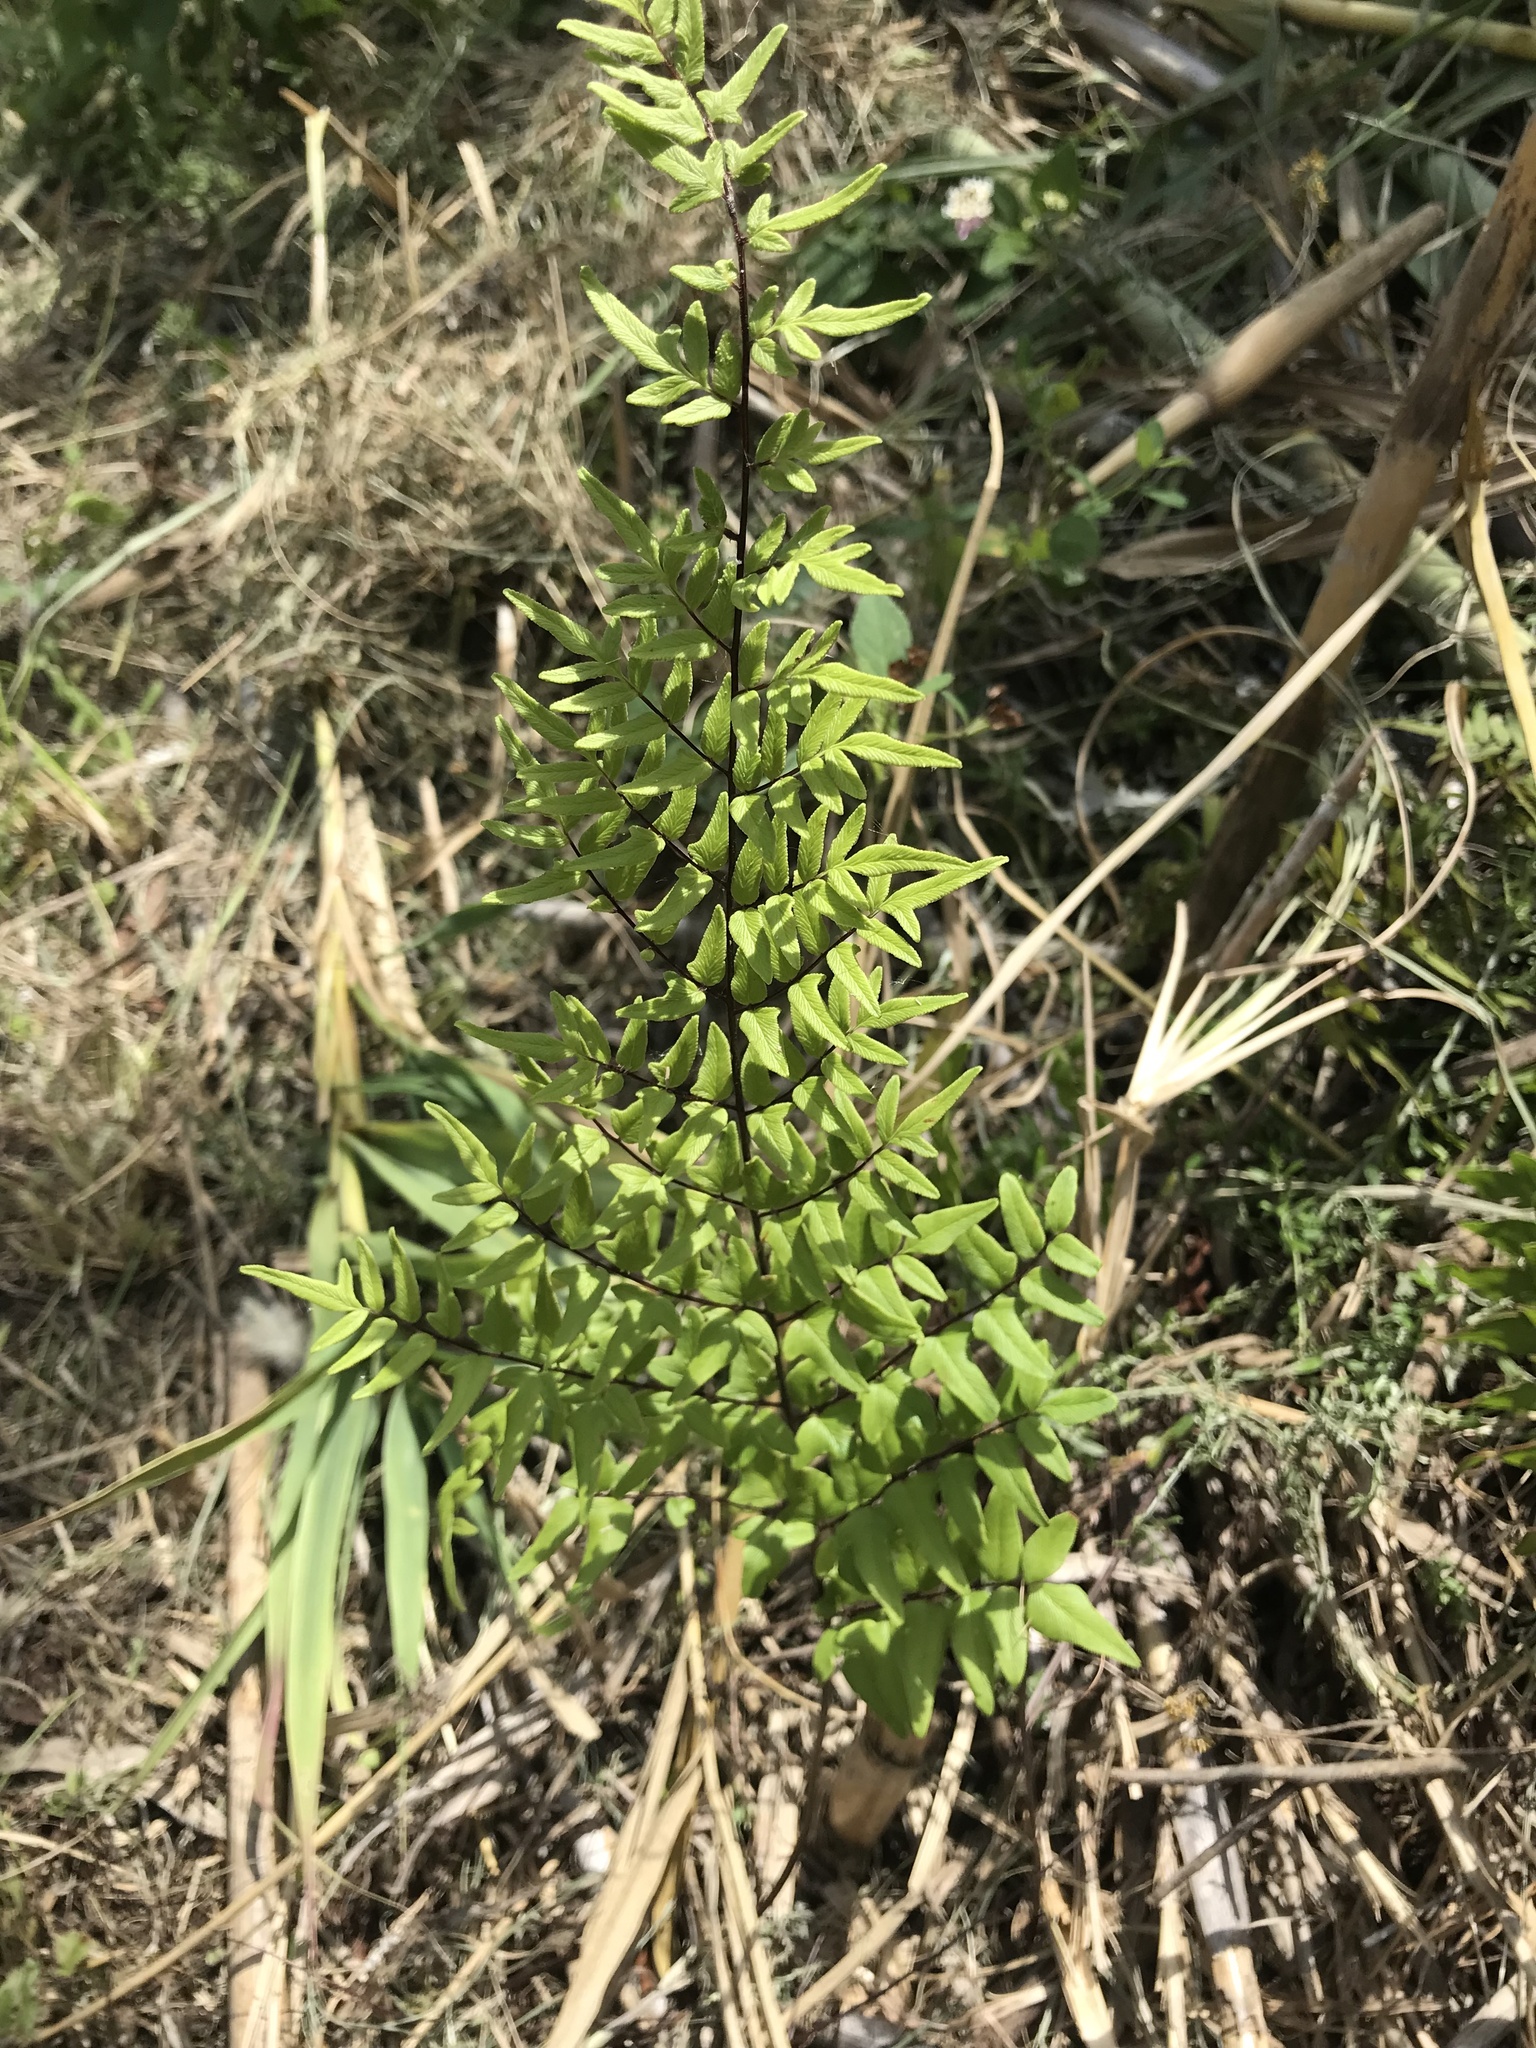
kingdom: Plantae
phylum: Tracheophyta
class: Polypodiopsida
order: Polypodiales
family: Pteridaceae
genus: Cheilanthes
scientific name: Cheilanthes viridis
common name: Green cliffbrake
